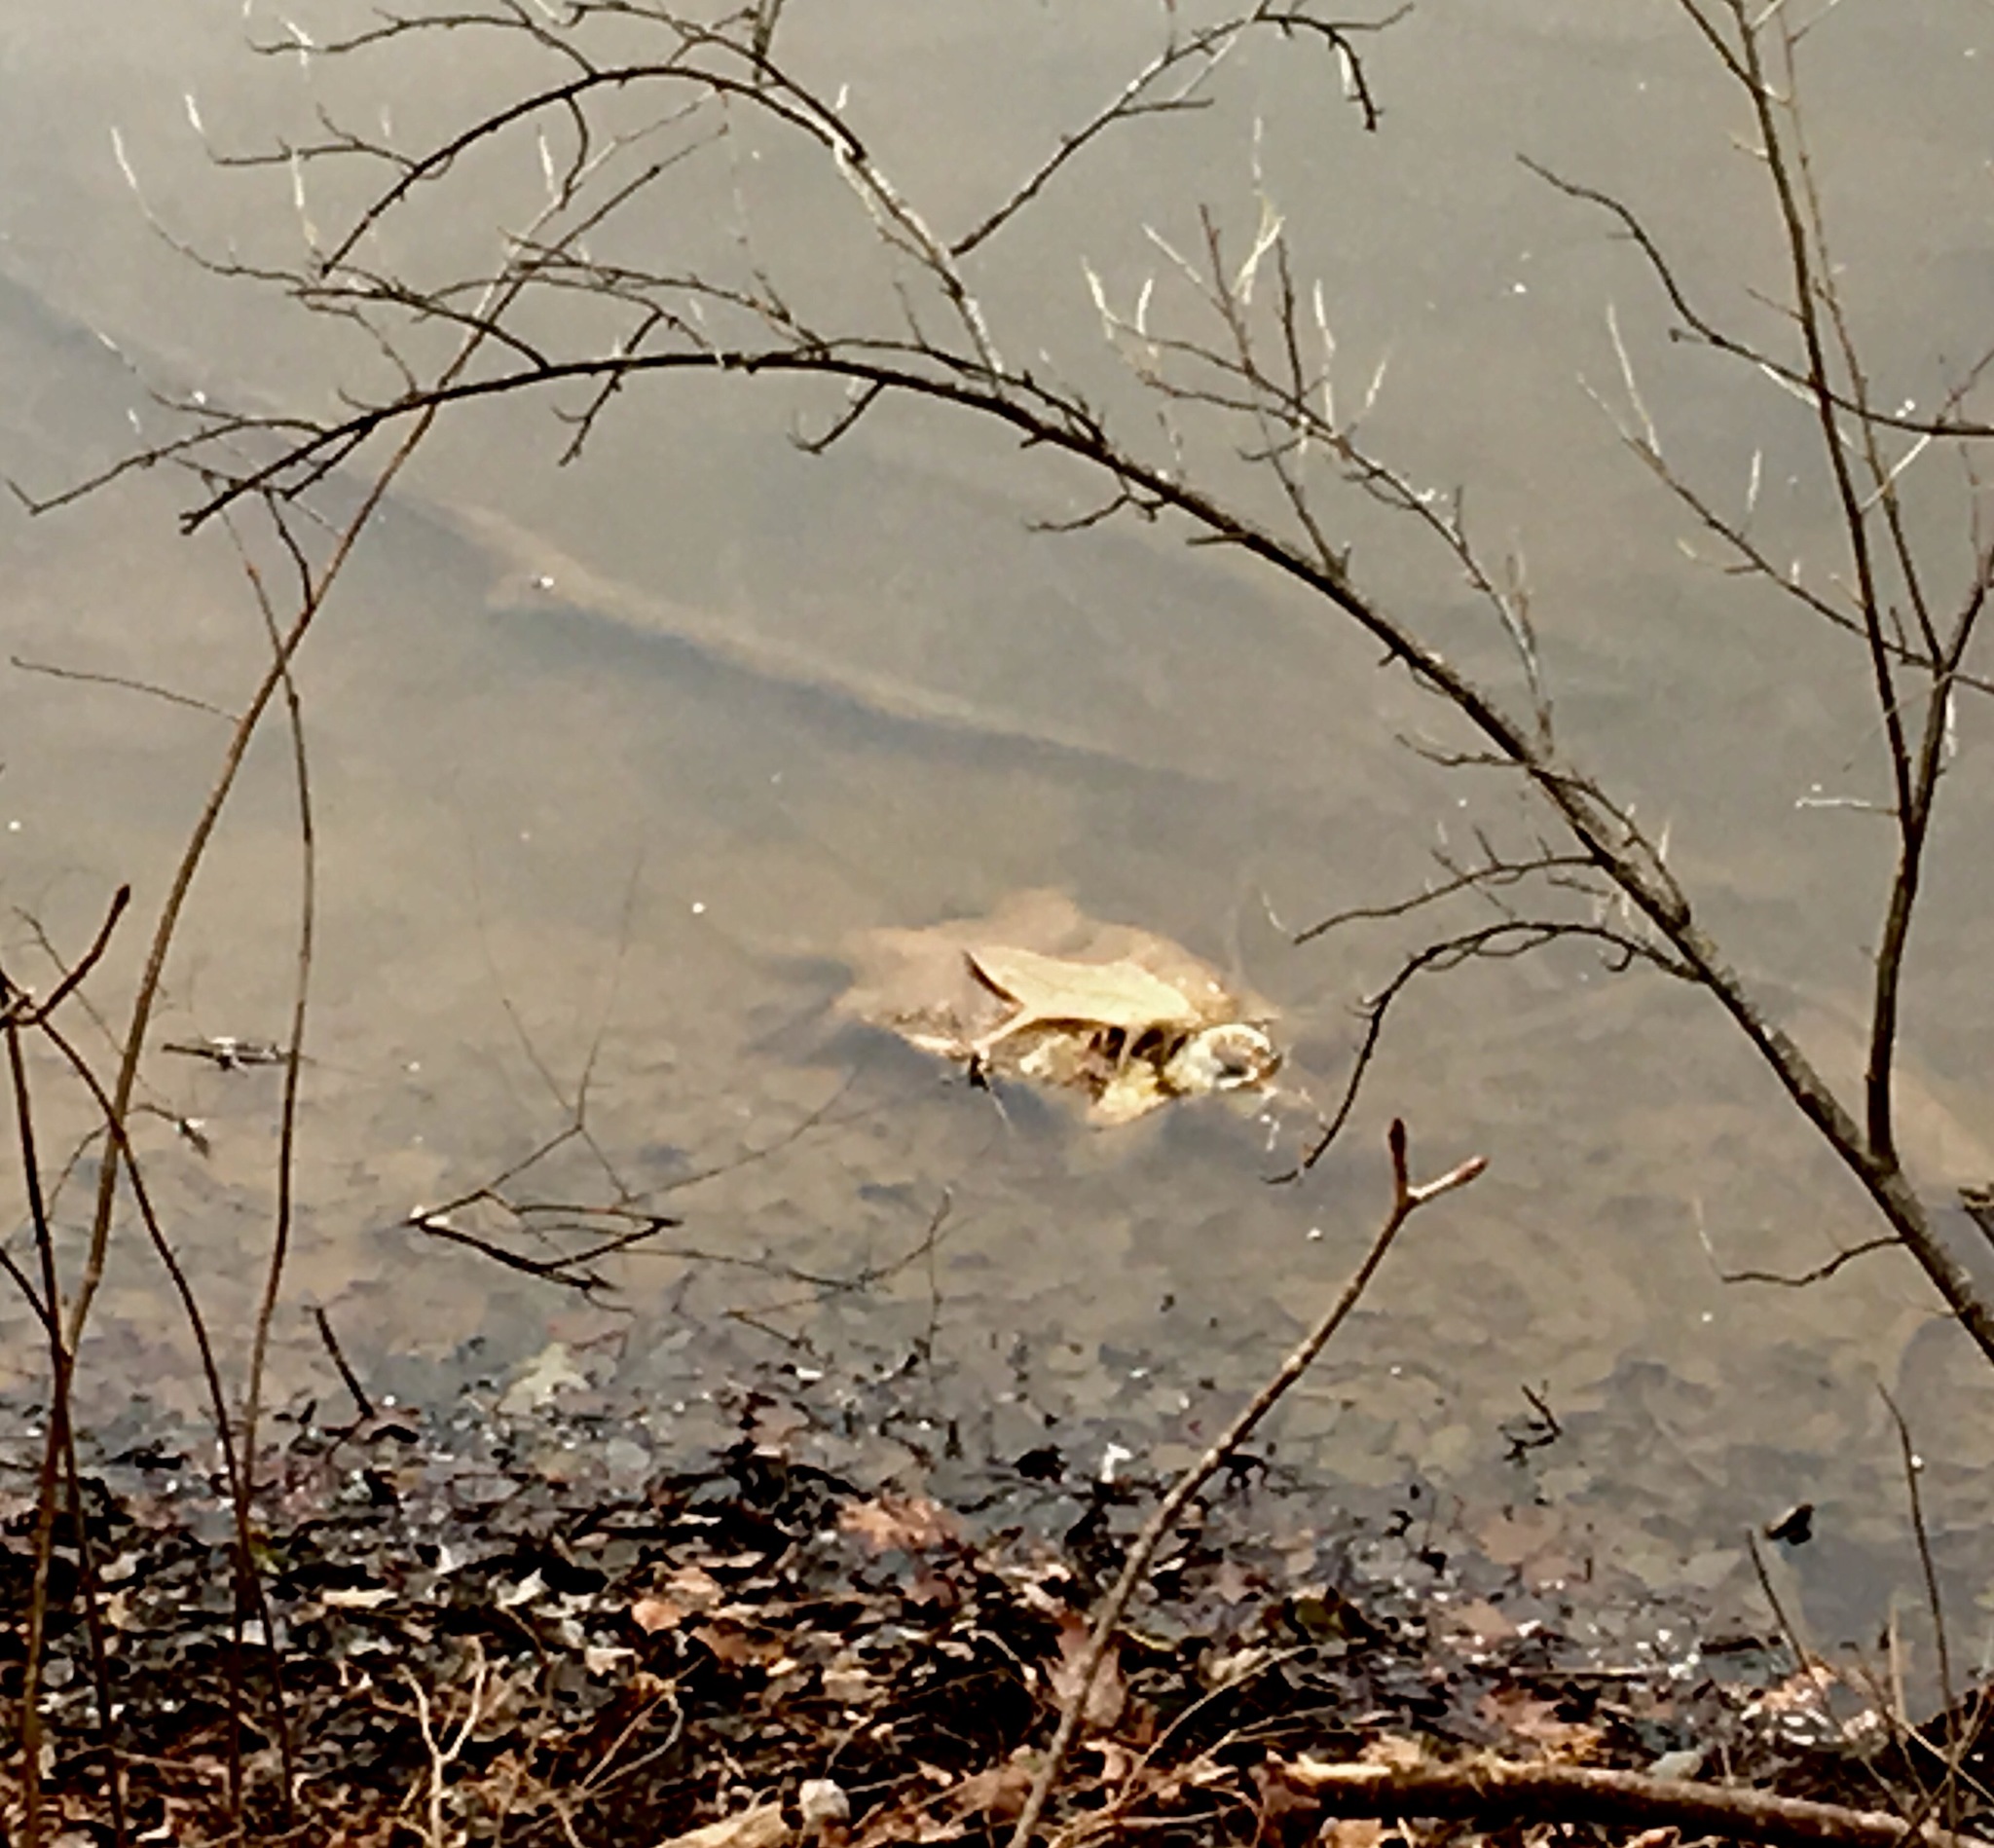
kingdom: Animalia
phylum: Chordata
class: Testudines
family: Chelydridae
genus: Chelydra
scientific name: Chelydra serpentina
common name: Common snapping turtle
